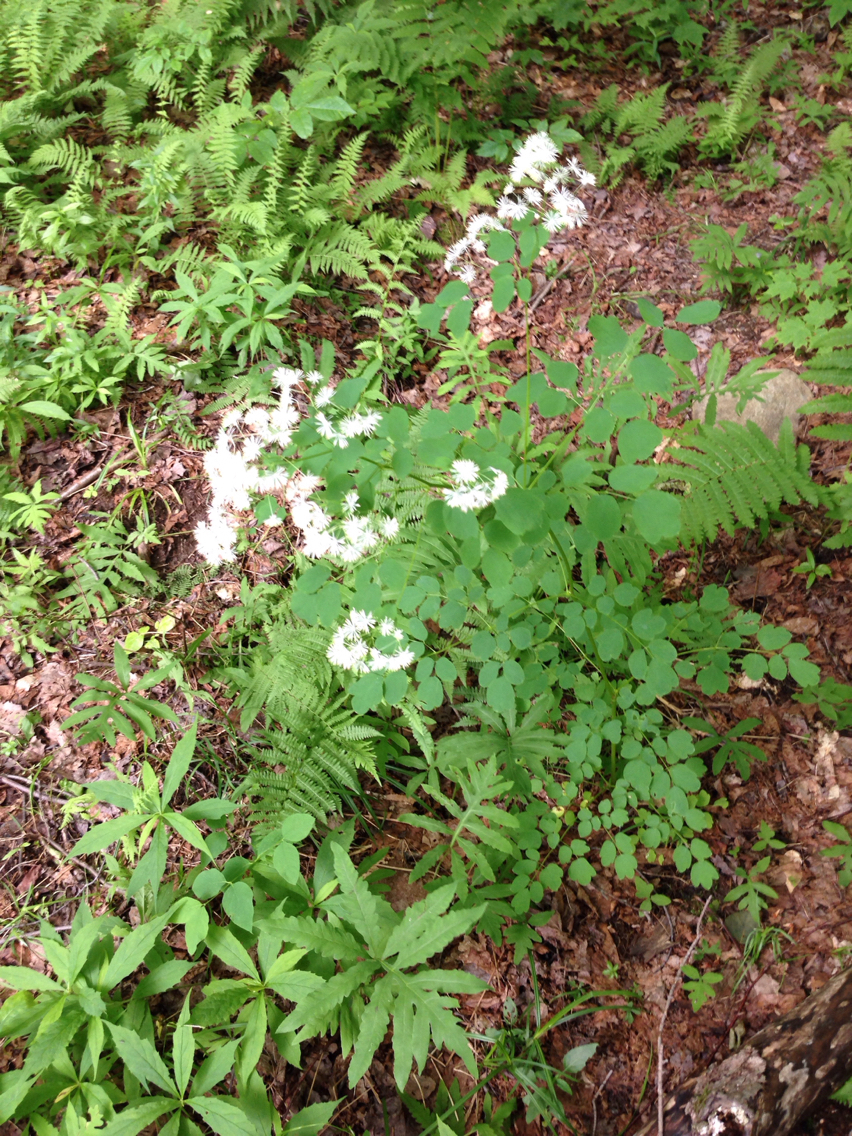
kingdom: Plantae
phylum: Tracheophyta
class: Magnoliopsida
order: Ranunculales
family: Ranunculaceae
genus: Thalictrum
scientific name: Thalictrum pubescens
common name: King-of-the-meadow
